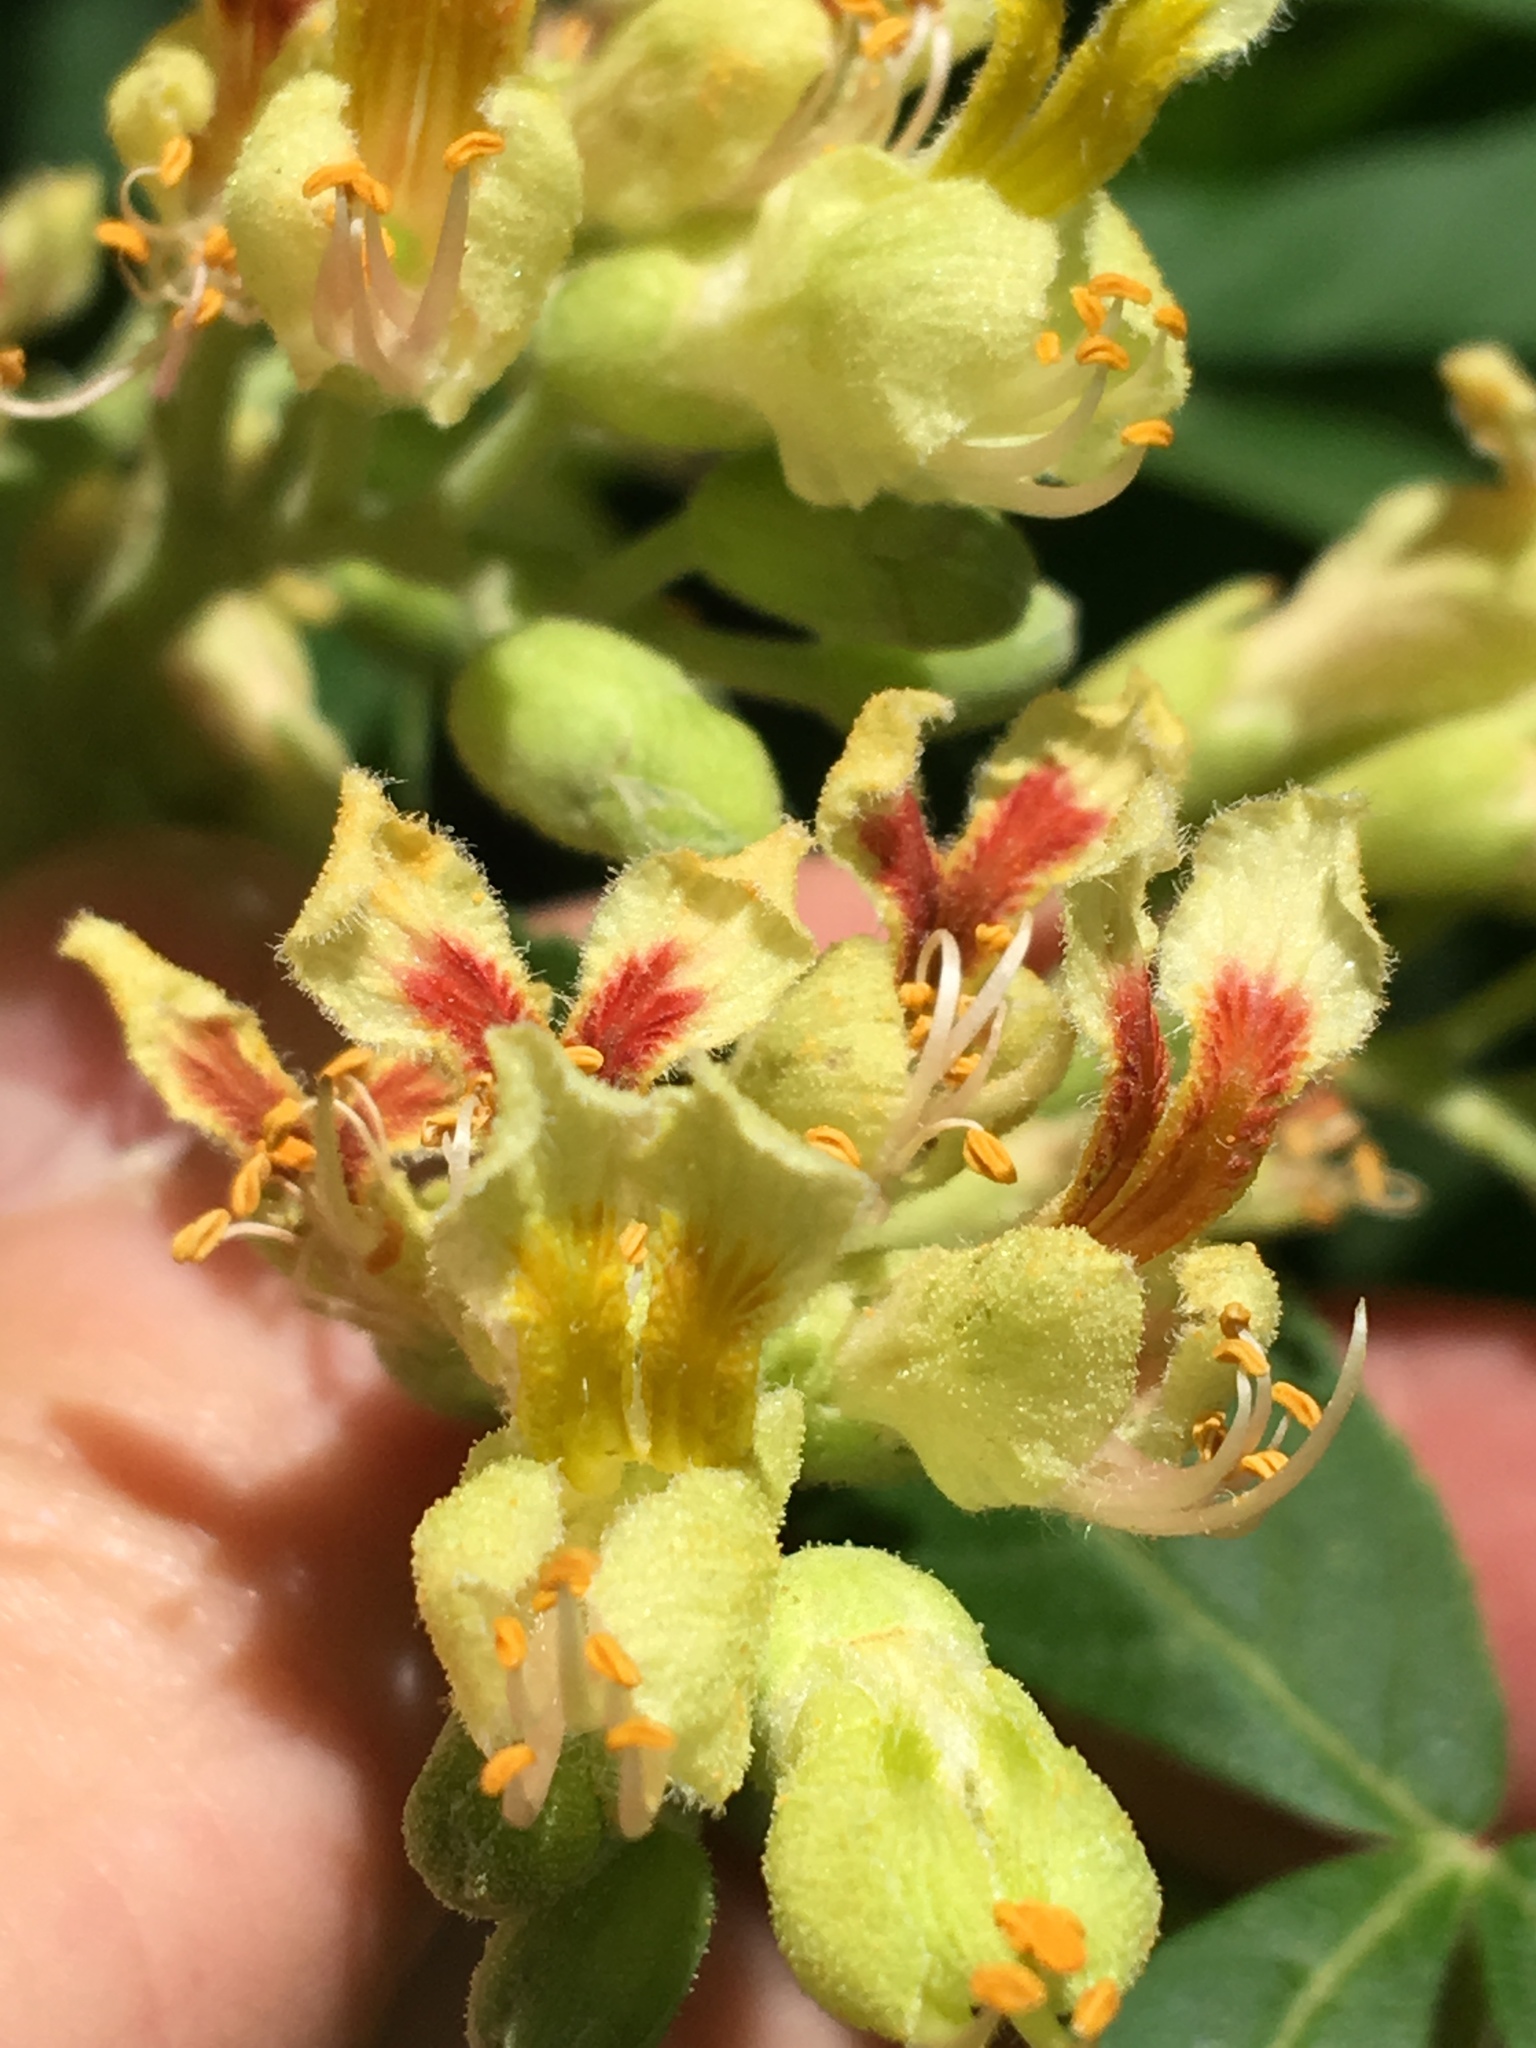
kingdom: Plantae
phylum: Tracheophyta
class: Magnoliopsida
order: Sapindales
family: Sapindaceae
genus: Aesculus
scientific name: Aesculus flava
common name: Yellow buckeye
